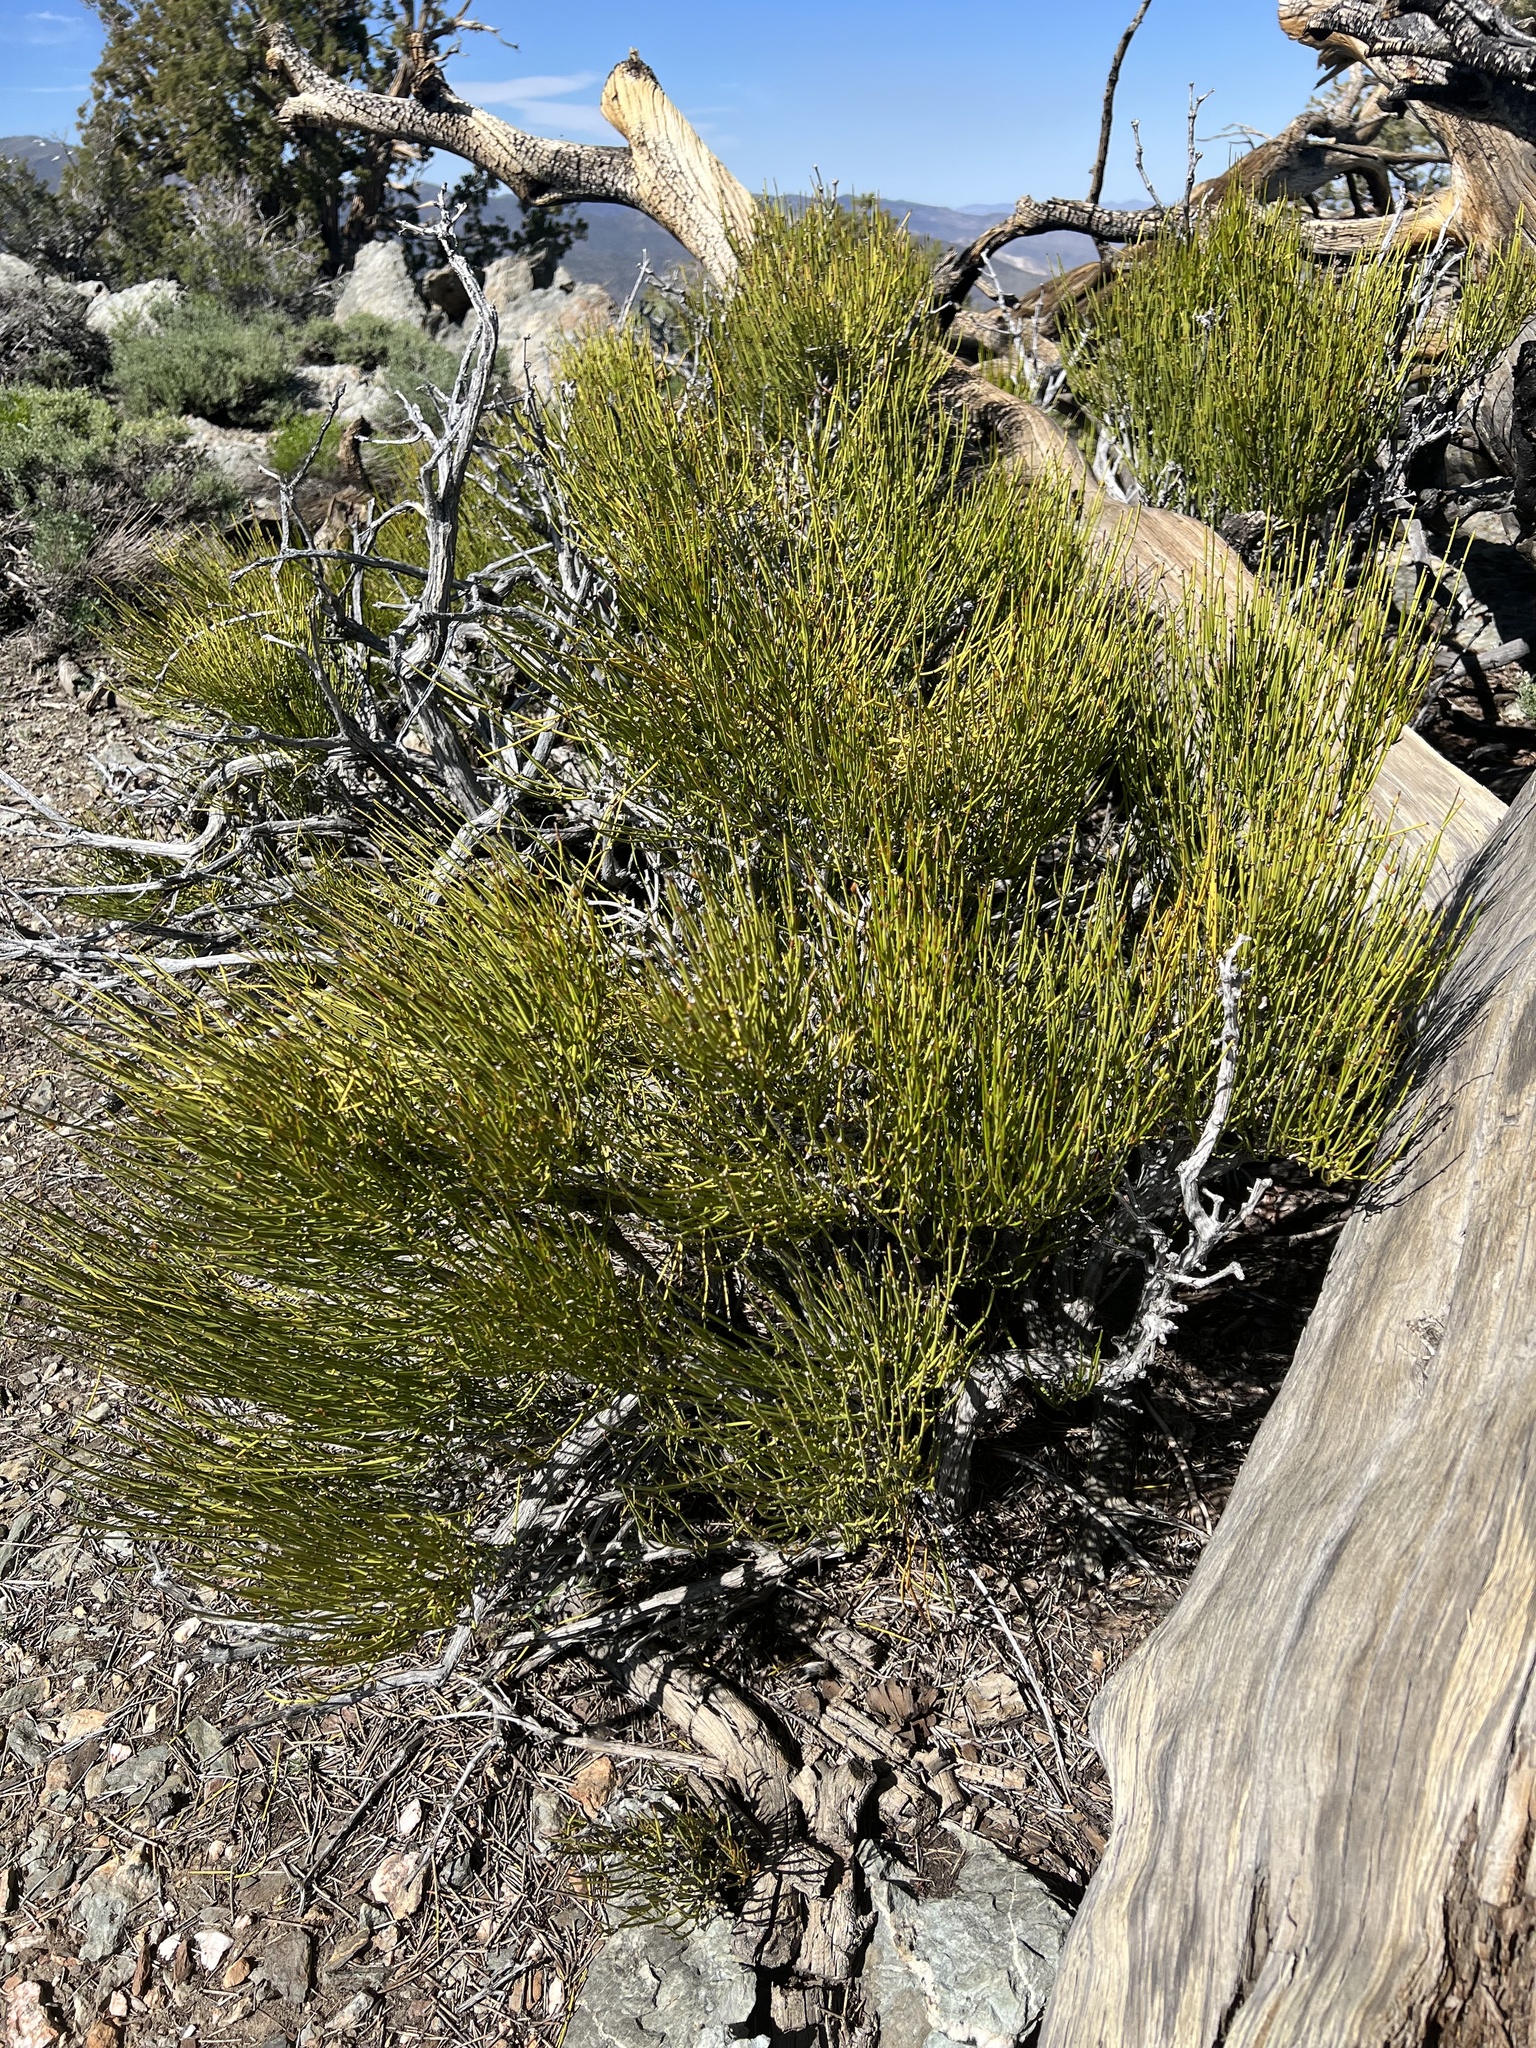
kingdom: Plantae
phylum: Tracheophyta
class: Gnetopsida
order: Ephedrales
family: Ephedraceae
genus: Ephedra
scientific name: Ephedra viridis
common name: Green ephedra
